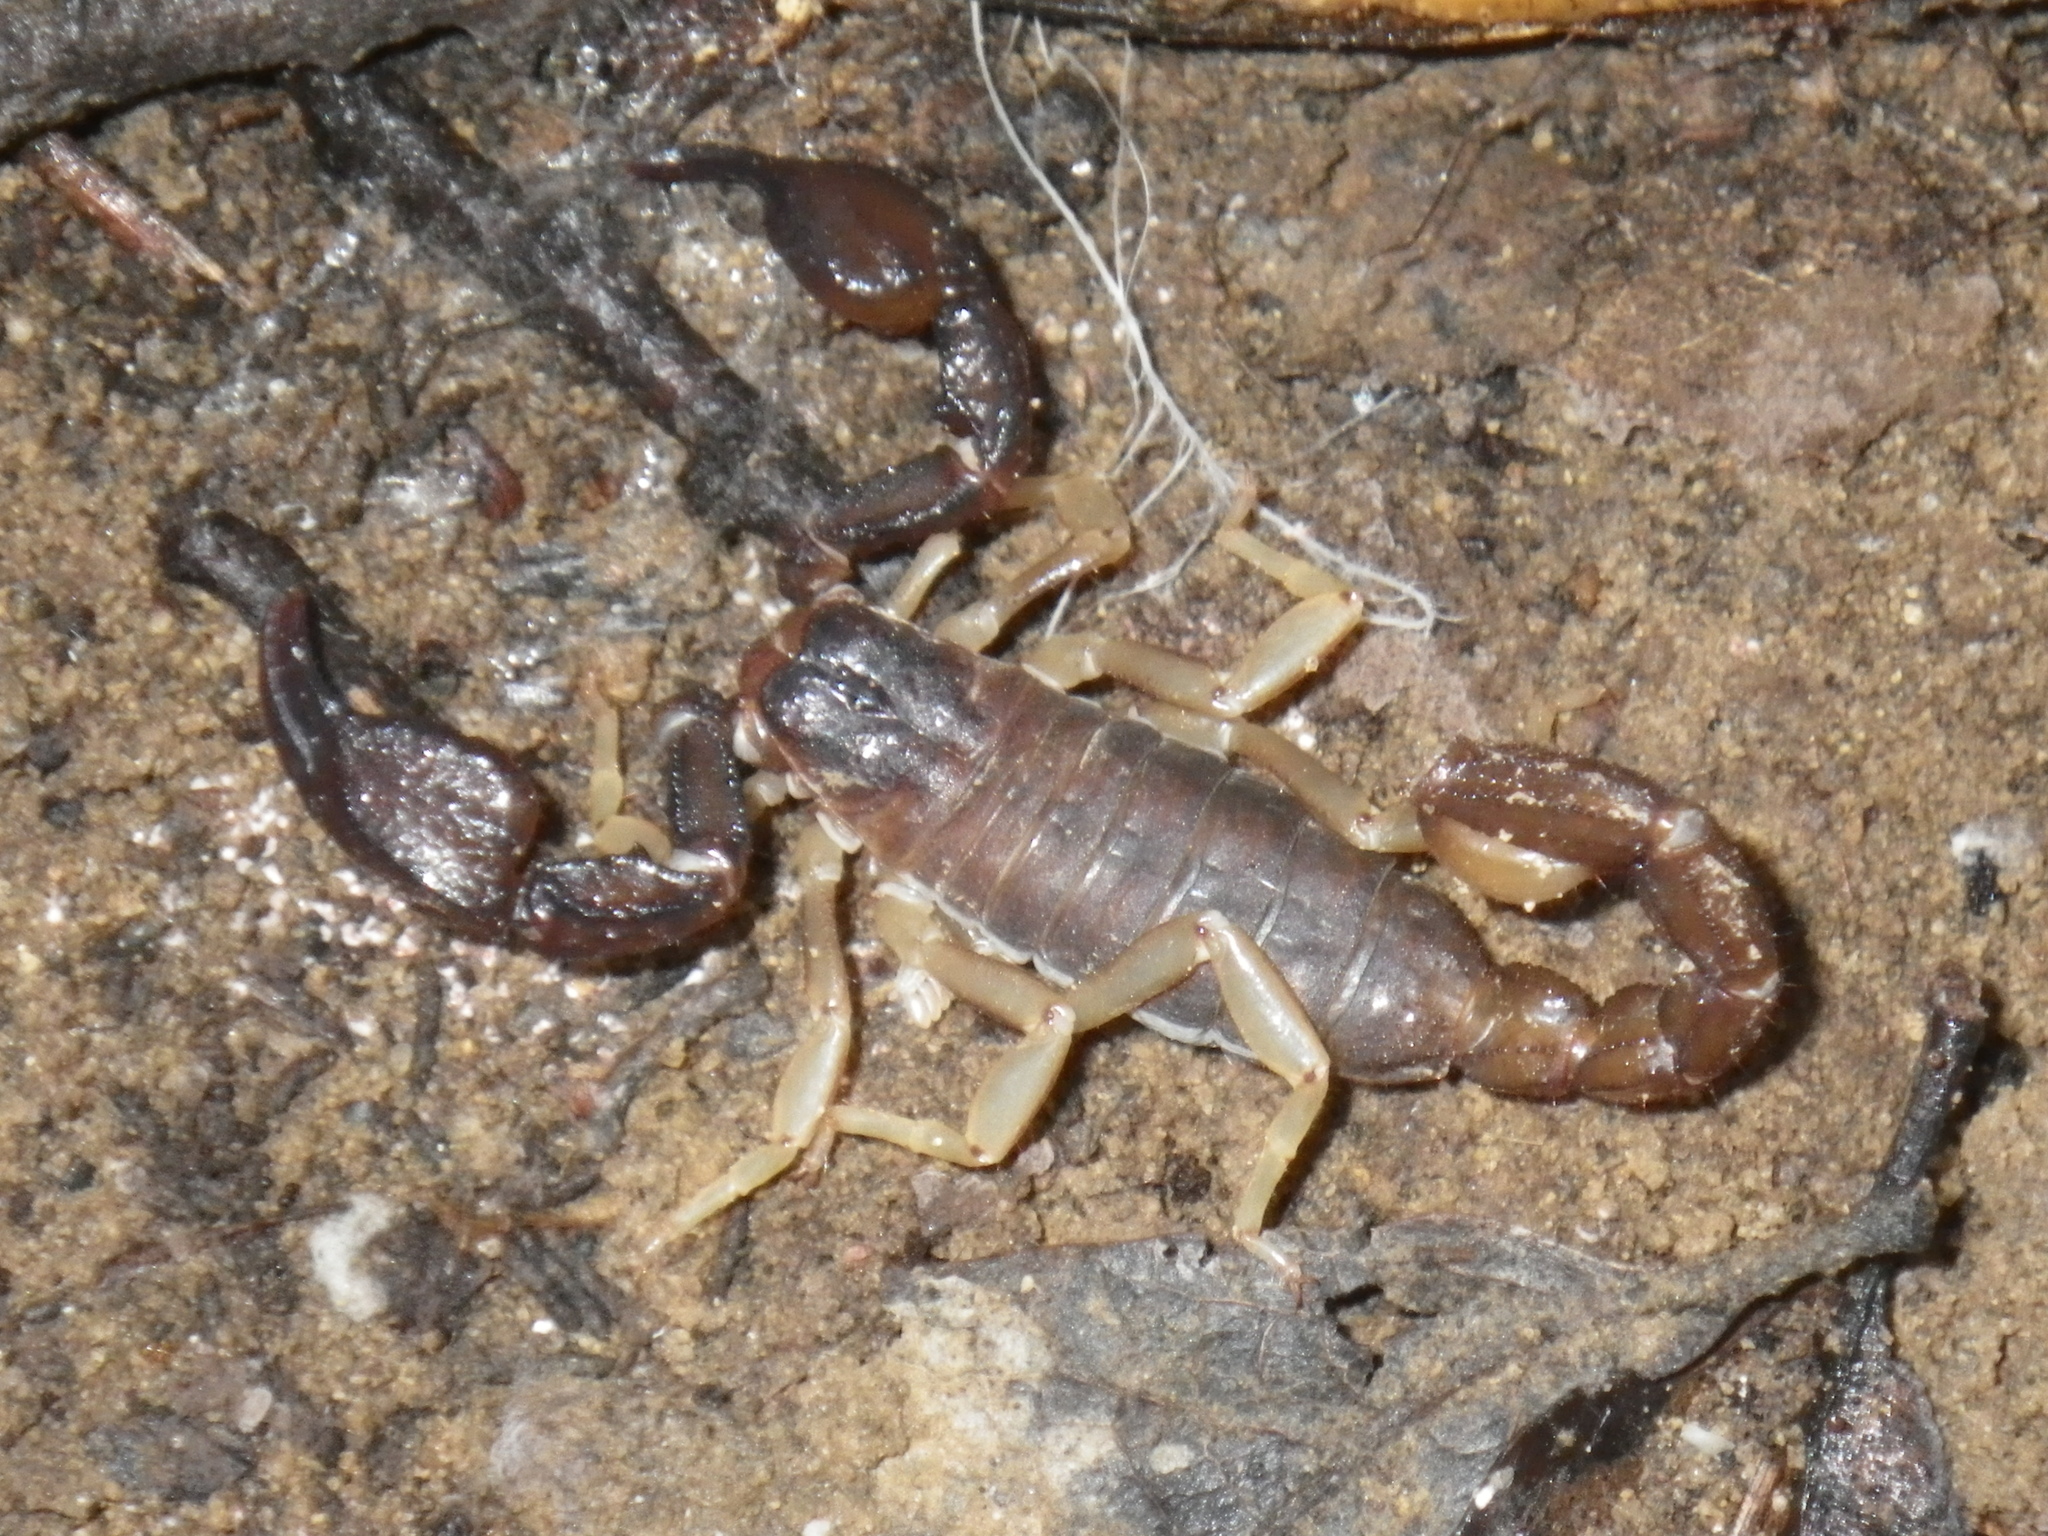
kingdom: Animalia
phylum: Arthropoda
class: Arachnida
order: Scorpiones
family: Chactidae
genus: Uroctonus
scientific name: Uroctonus mordax
